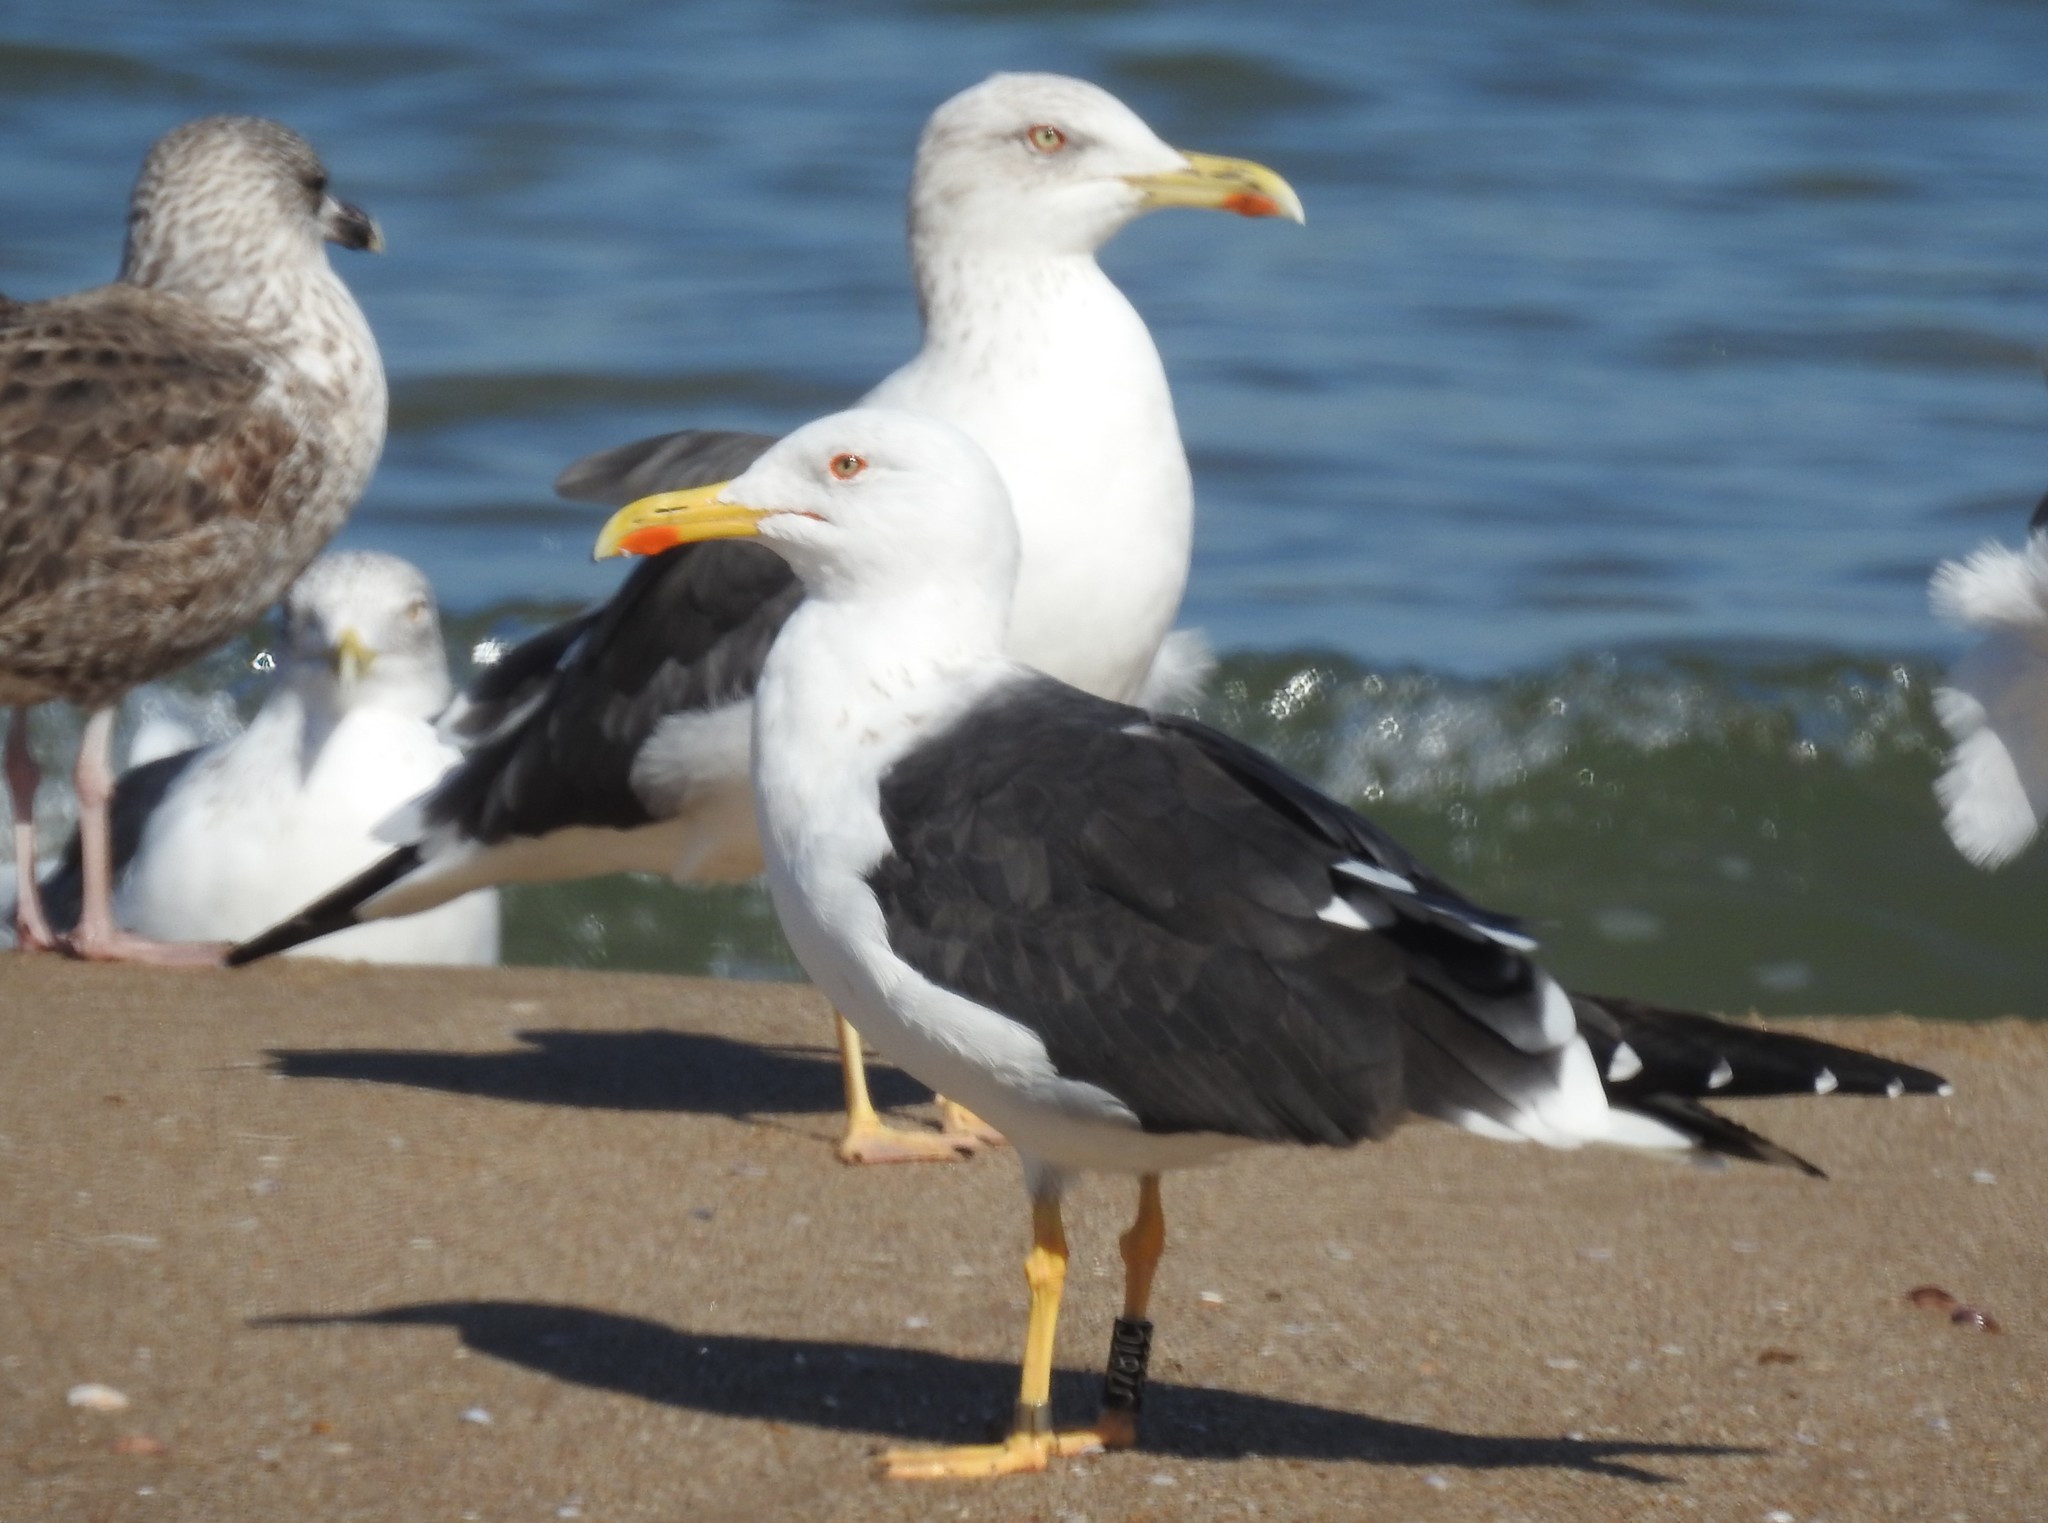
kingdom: Animalia
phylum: Chordata
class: Aves
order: Charadriiformes
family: Laridae
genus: Larus
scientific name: Larus fuscus
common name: Lesser black-backed gull
